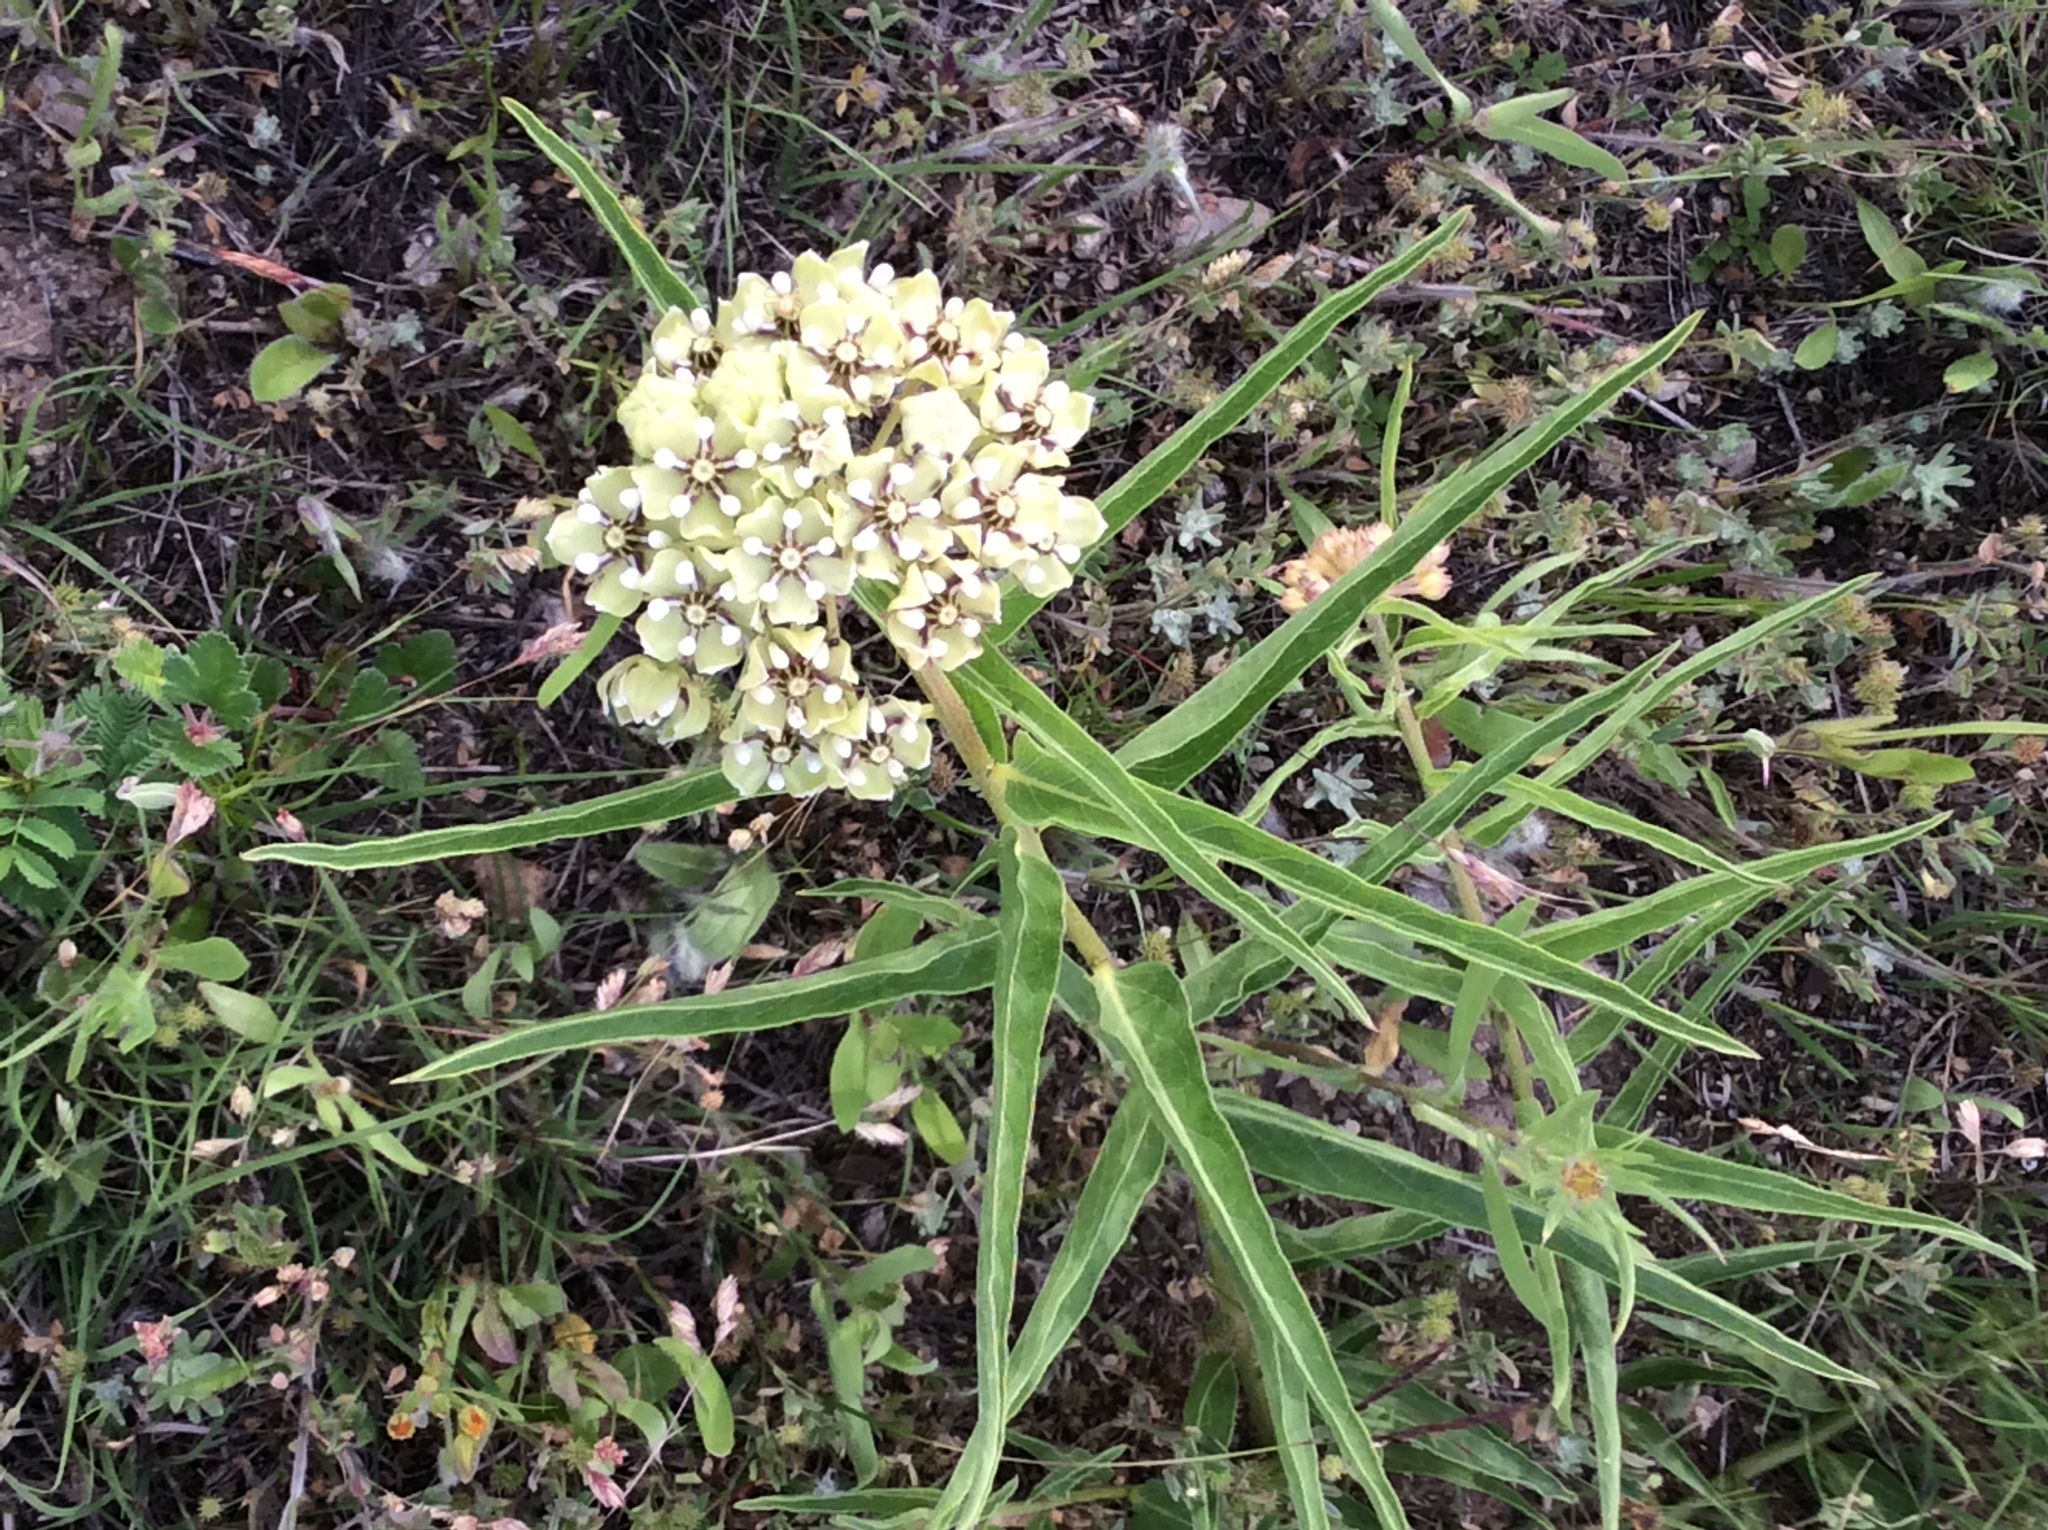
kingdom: Plantae
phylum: Tracheophyta
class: Magnoliopsida
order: Gentianales
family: Apocynaceae
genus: Asclepias
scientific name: Asclepias asperula
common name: Antelope horns
